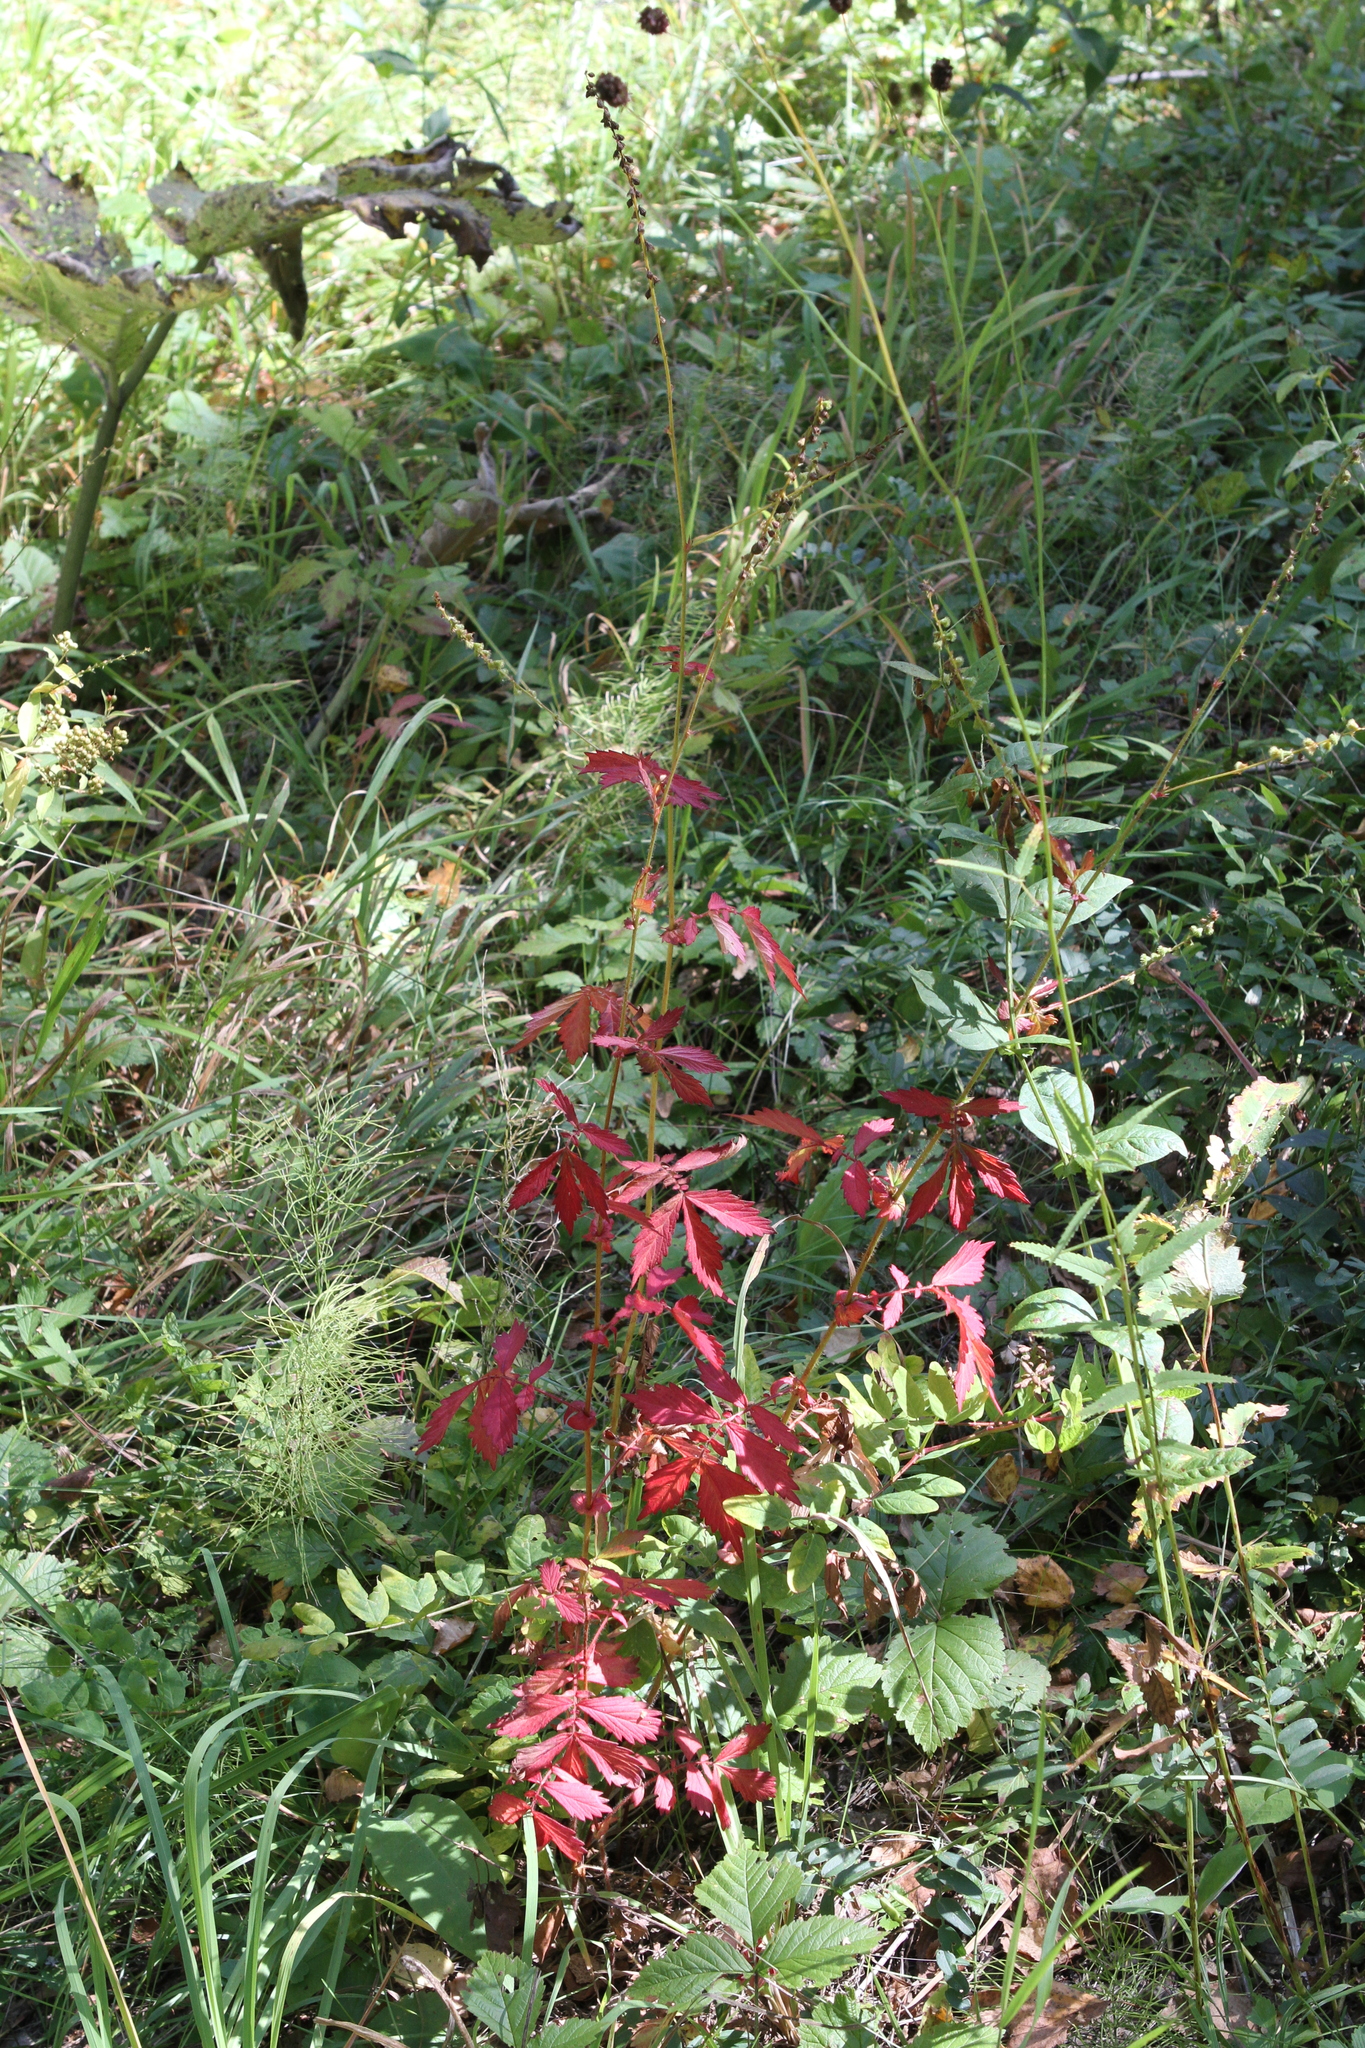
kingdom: Plantae
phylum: Tracheophyta
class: Magnoliopsida
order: Rosales
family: Rosaceae
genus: Sanguisorba
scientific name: Sanguisorba officinalis
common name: Great burnet
